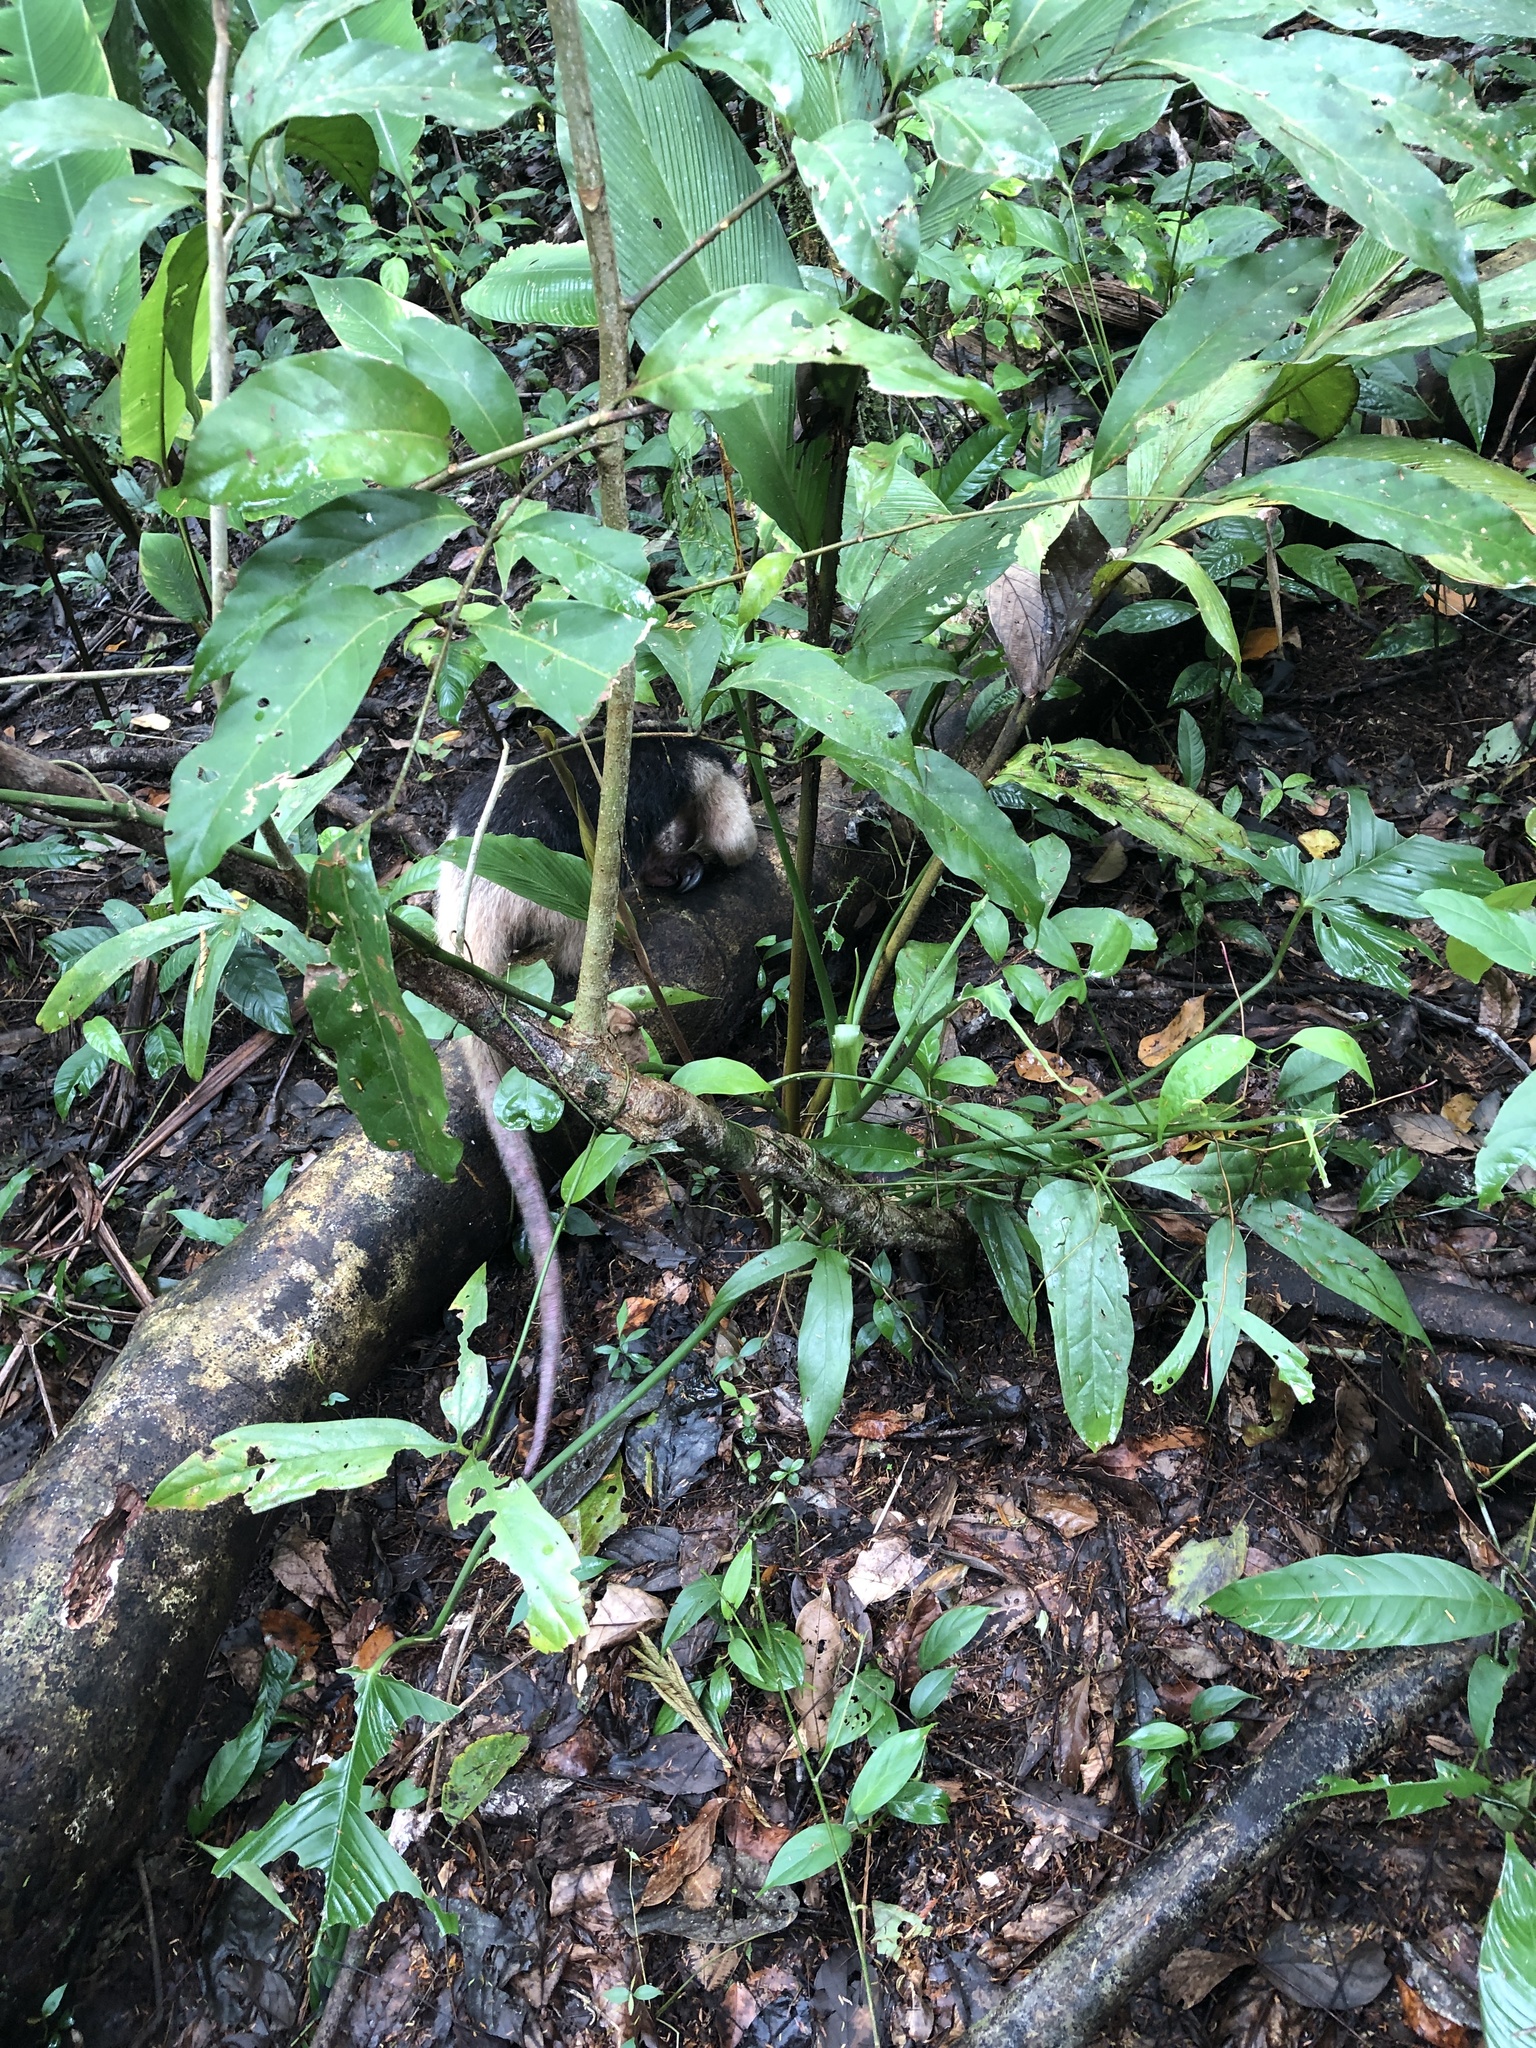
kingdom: Animalia
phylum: Chordata
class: Mammalia
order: Pilosa
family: Myrmecophagidae
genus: Tamandua
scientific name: Tamandua mexicana
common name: Northern tamandua
